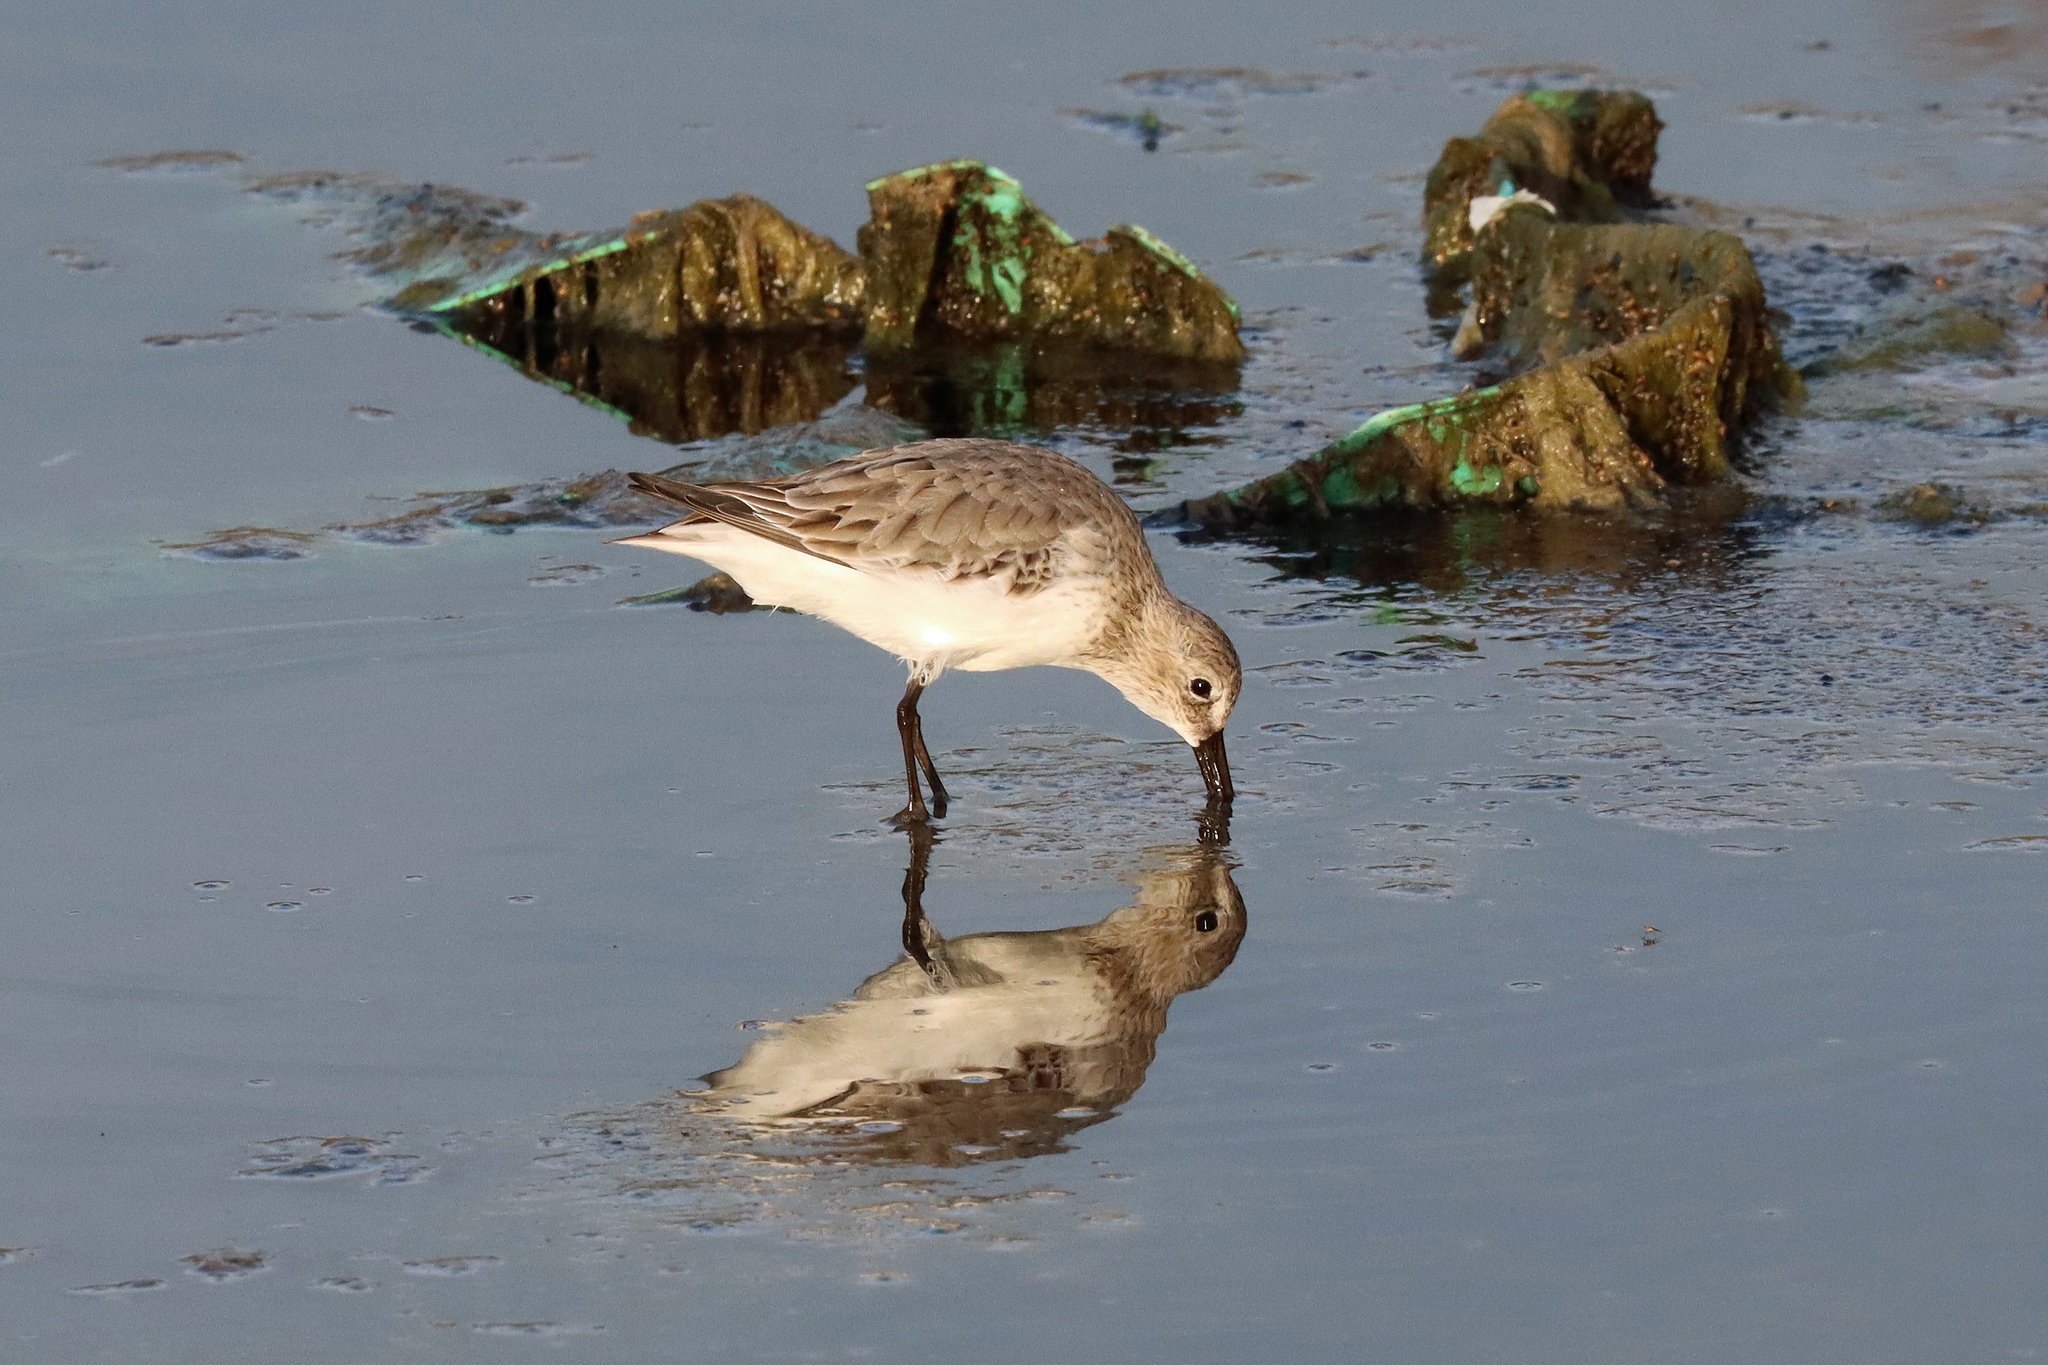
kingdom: Animalia
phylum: Chordata
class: Aves
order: Charadriiformes
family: Scolopacidae
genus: Calidris
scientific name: Calidris alpina
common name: Dunlin
